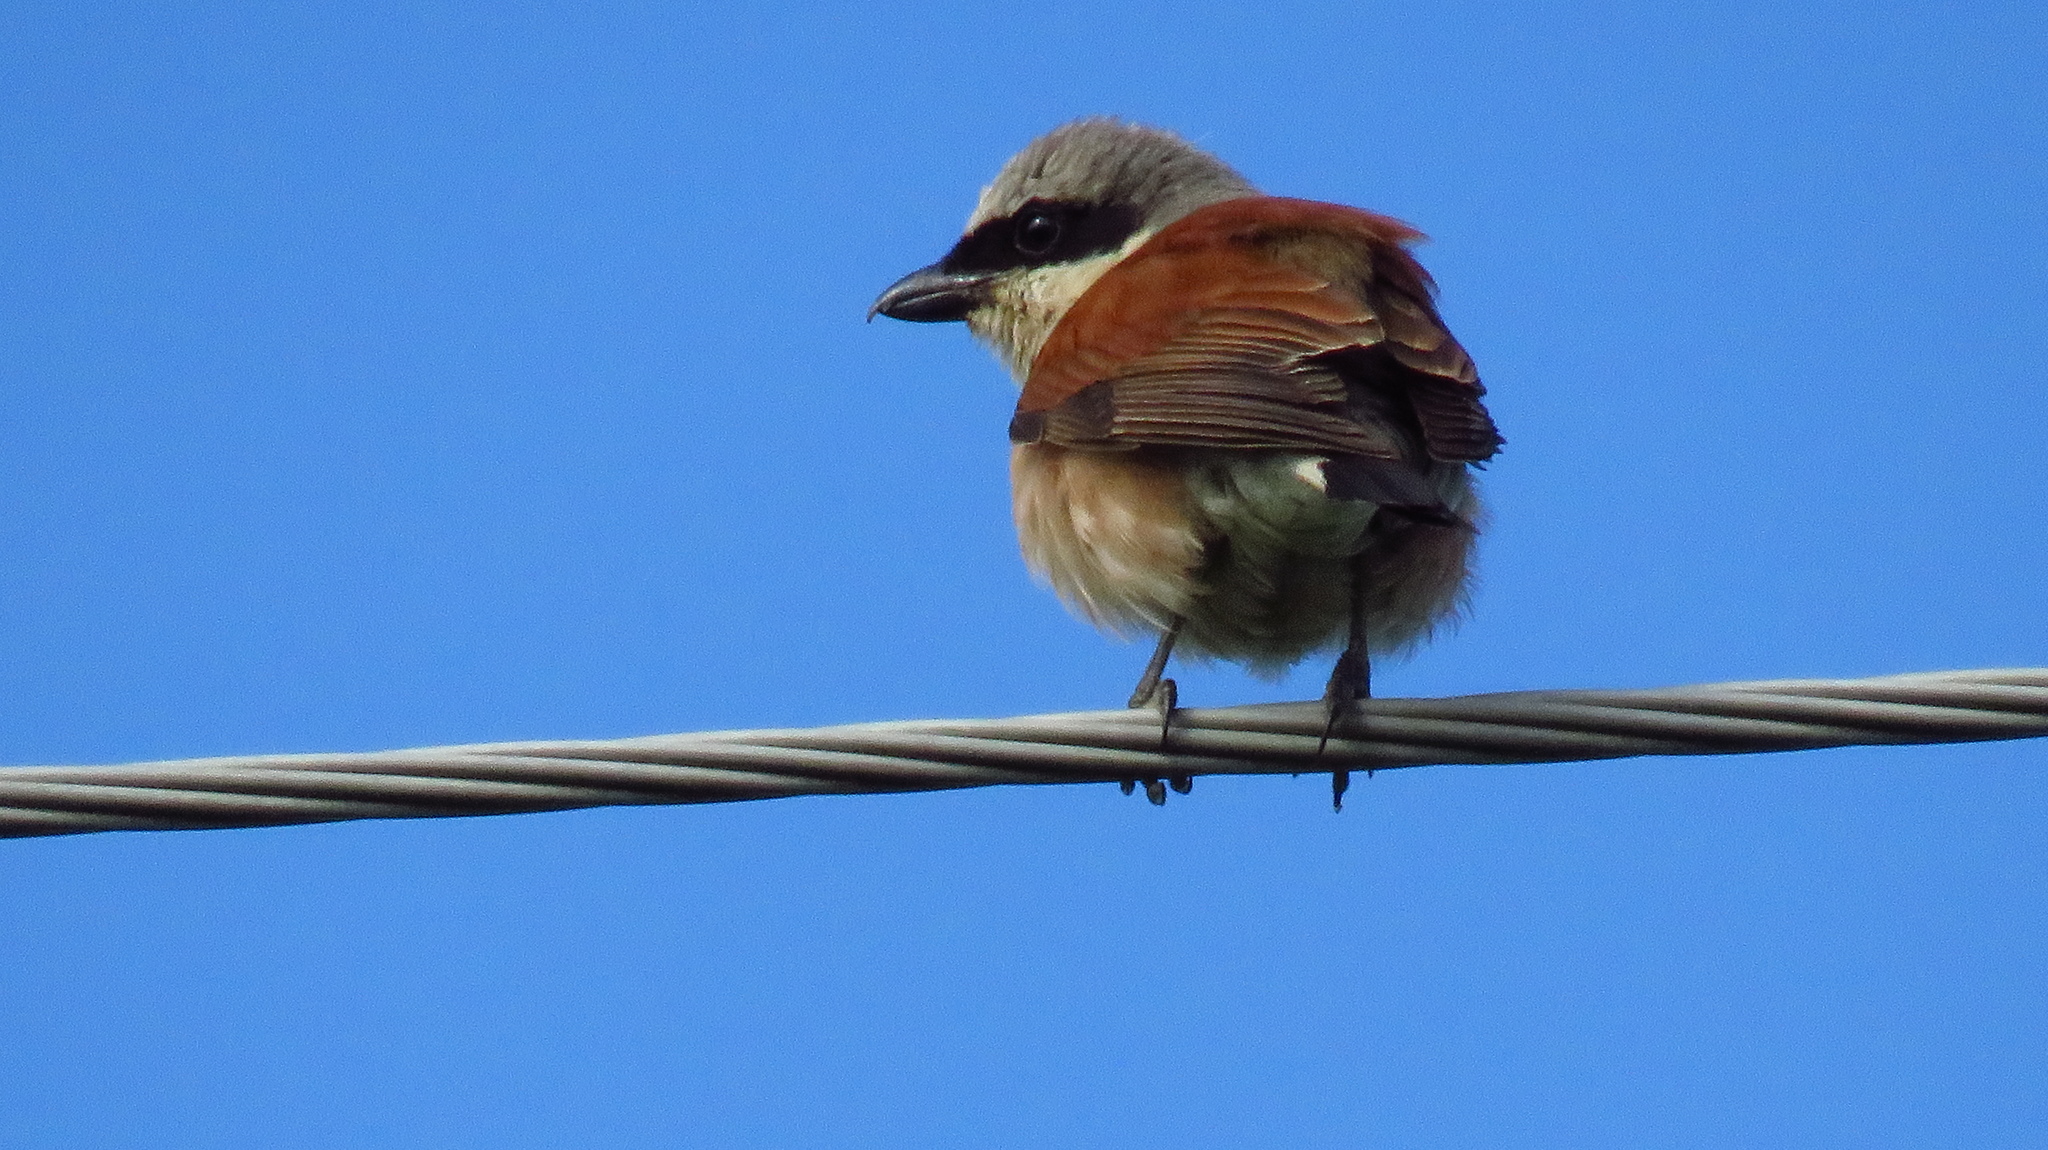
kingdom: Animalia
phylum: Chordata
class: Aves
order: Passeriformes
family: Laniidae
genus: Lanius
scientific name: Lanius collurio
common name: Red-backed shrike
